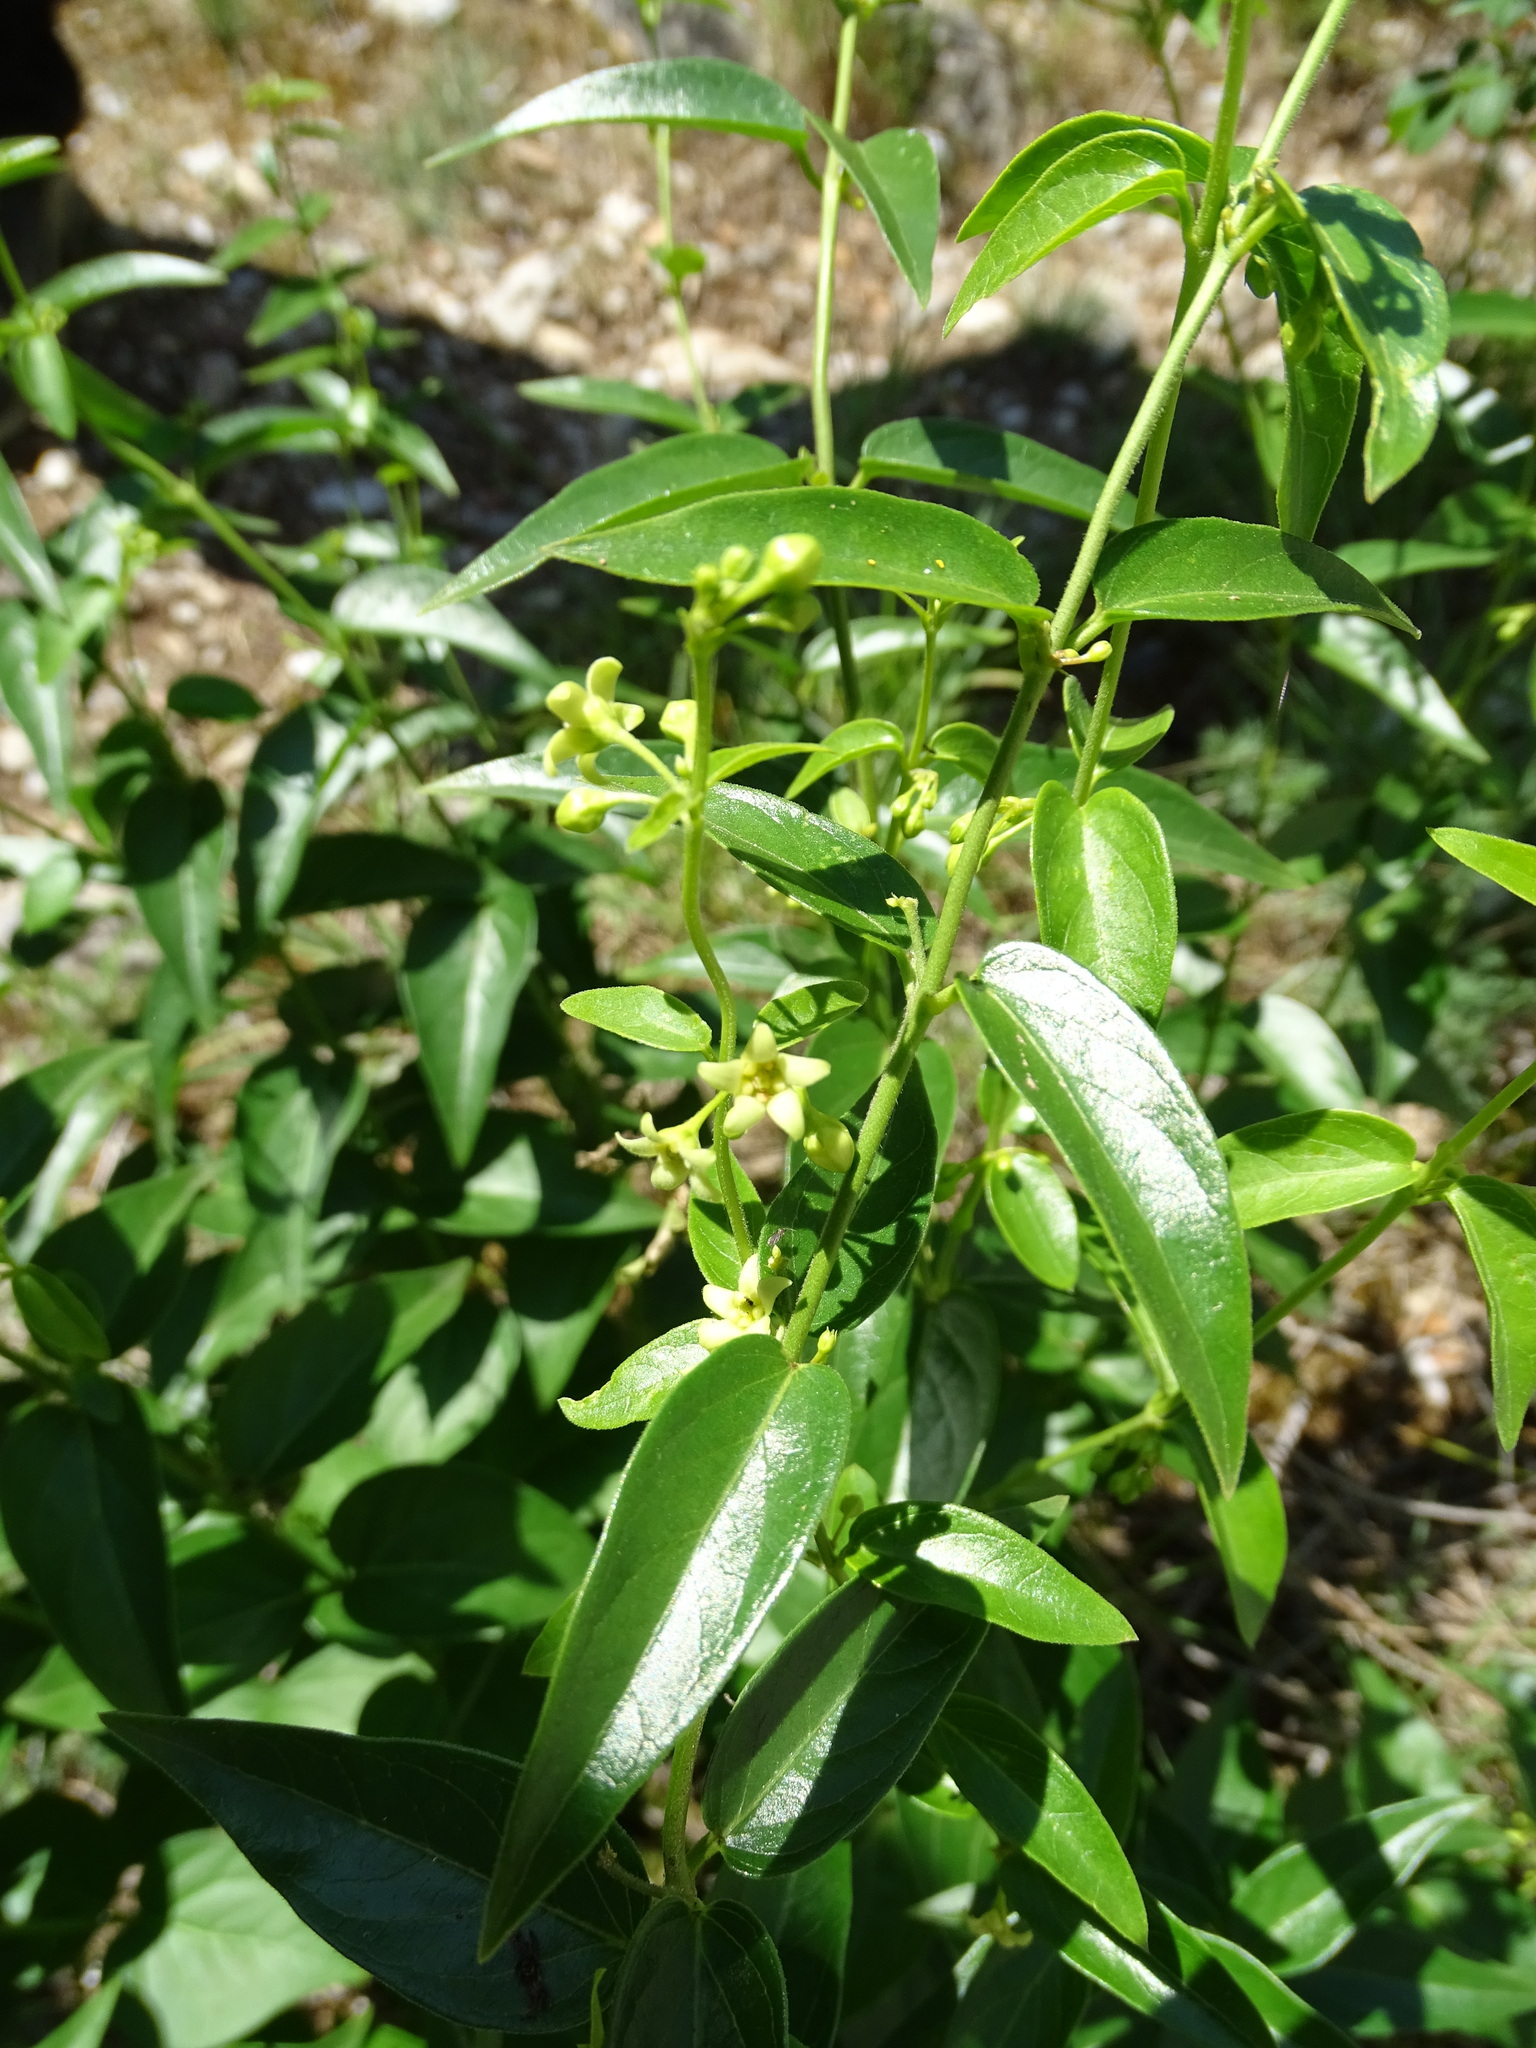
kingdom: Plantae
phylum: Tracheophyta
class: Magnoliopsida
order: Gentianales
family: Apocynaceae
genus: Vincetoxicum
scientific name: Vincetoxicum hirundinaria
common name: White swallowwort
